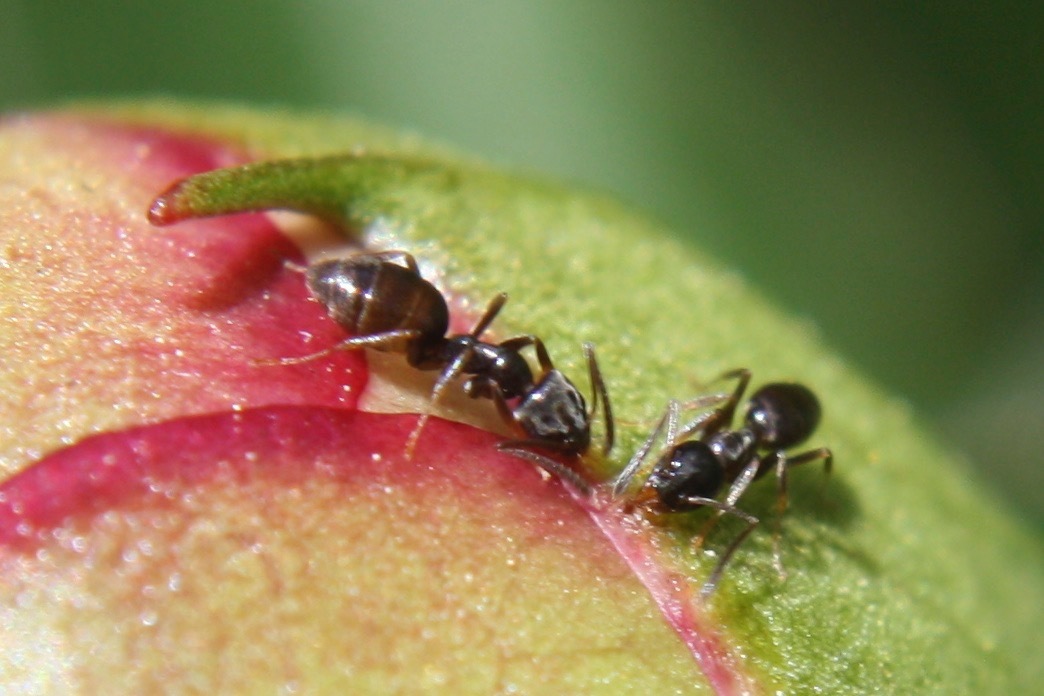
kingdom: Animalia
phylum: Arthropoda
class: Insecta
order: Hymenoptera
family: Formicidae
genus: Tapinoma
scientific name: Tapinoma sessile
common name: Odorous house ant
